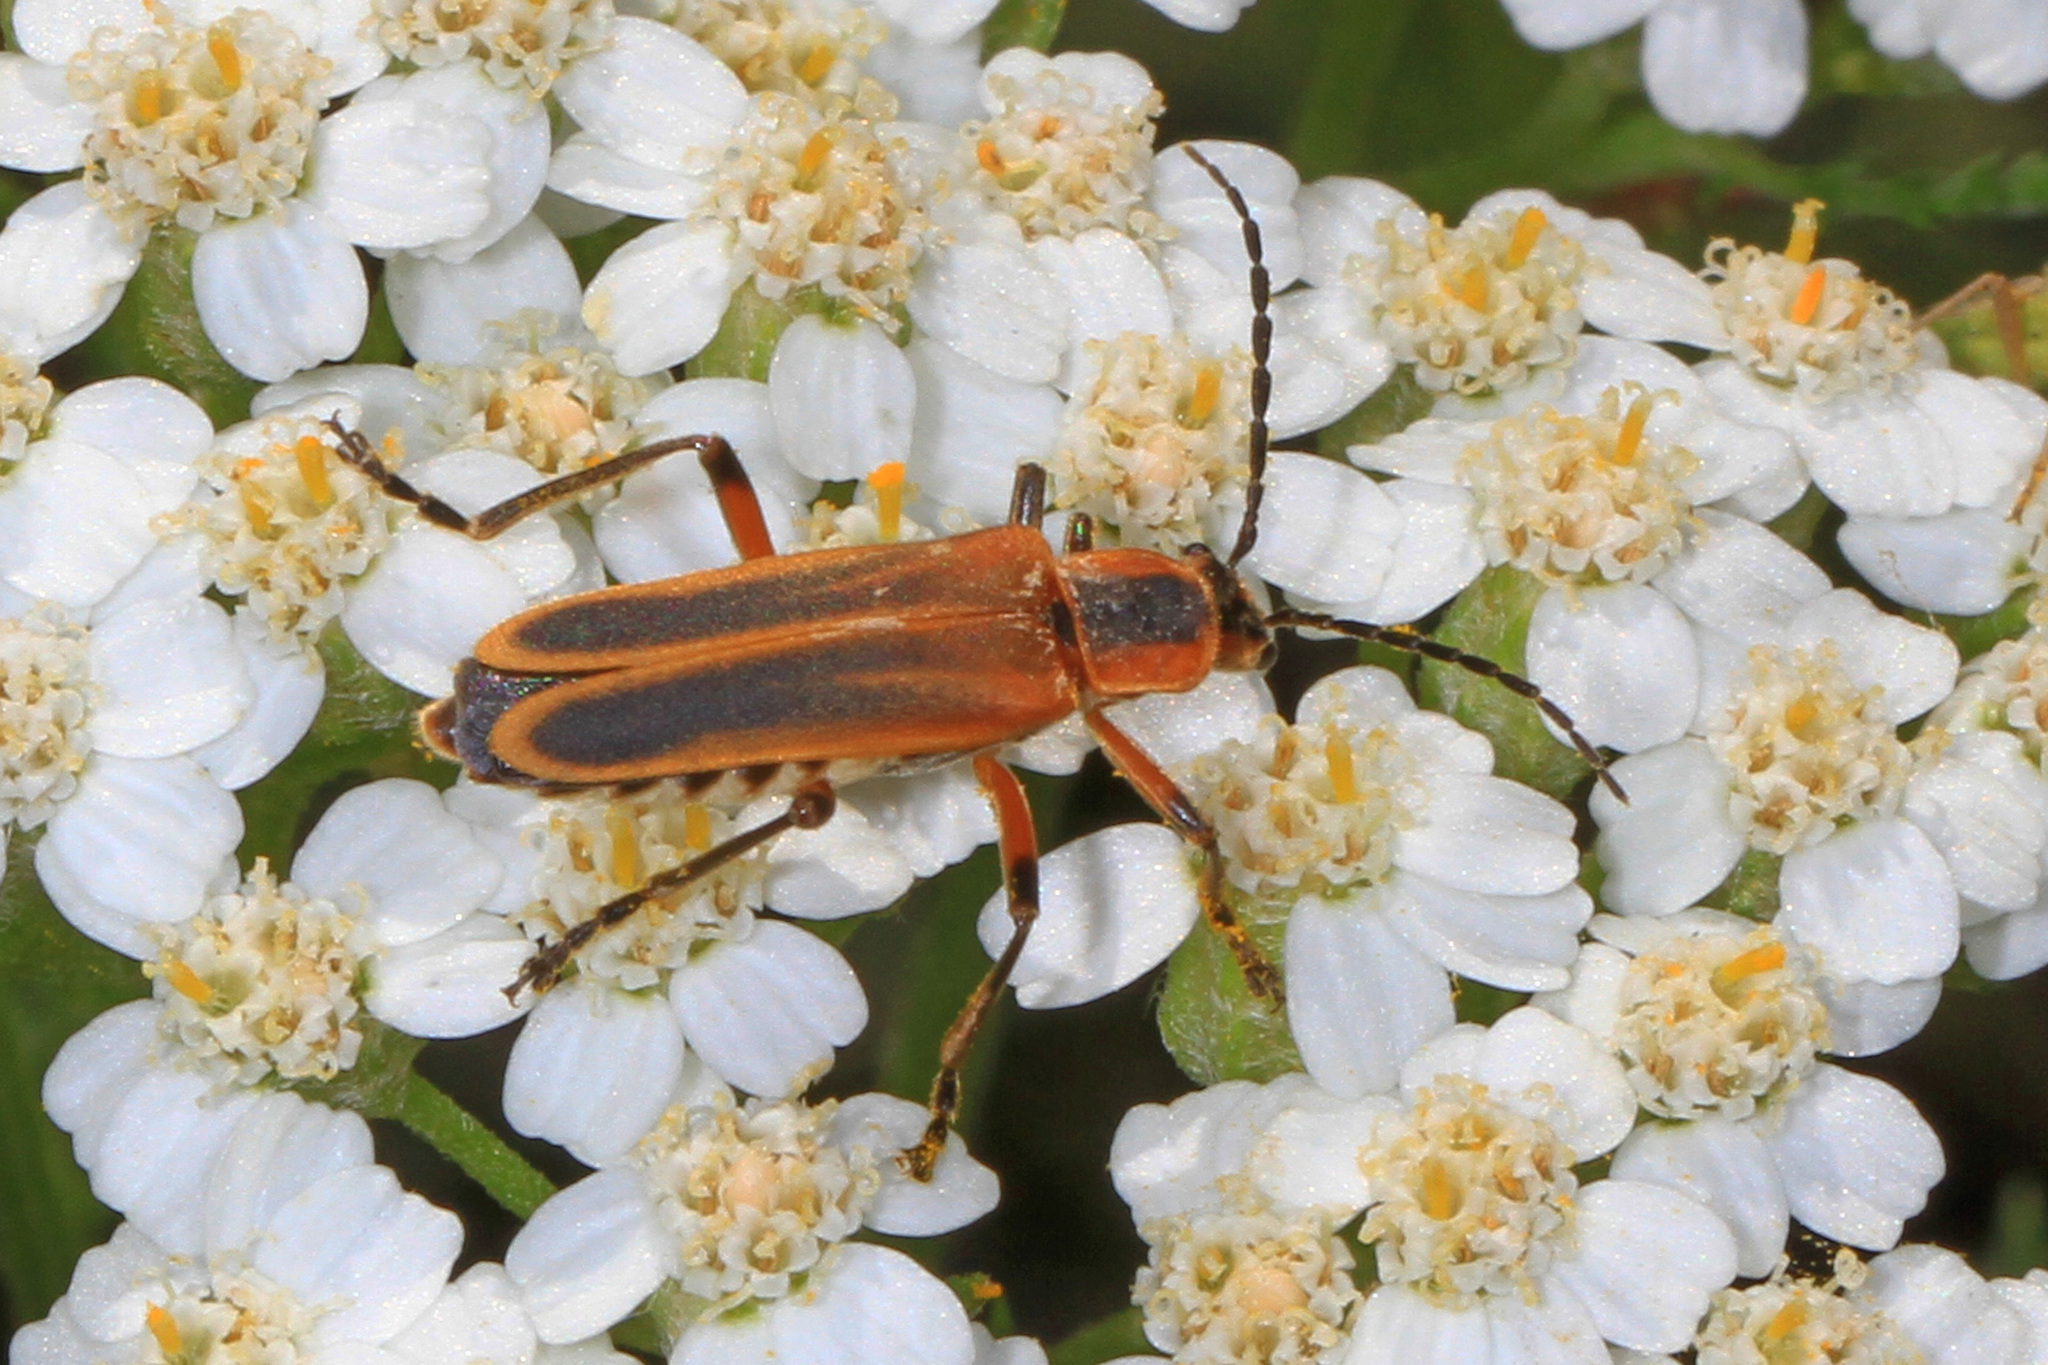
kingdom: Animalia
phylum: Arthropoda
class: Insecta
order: Coleoptera
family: Cantharidae
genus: Chauliognathus
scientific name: Chauliognathus marginatus
